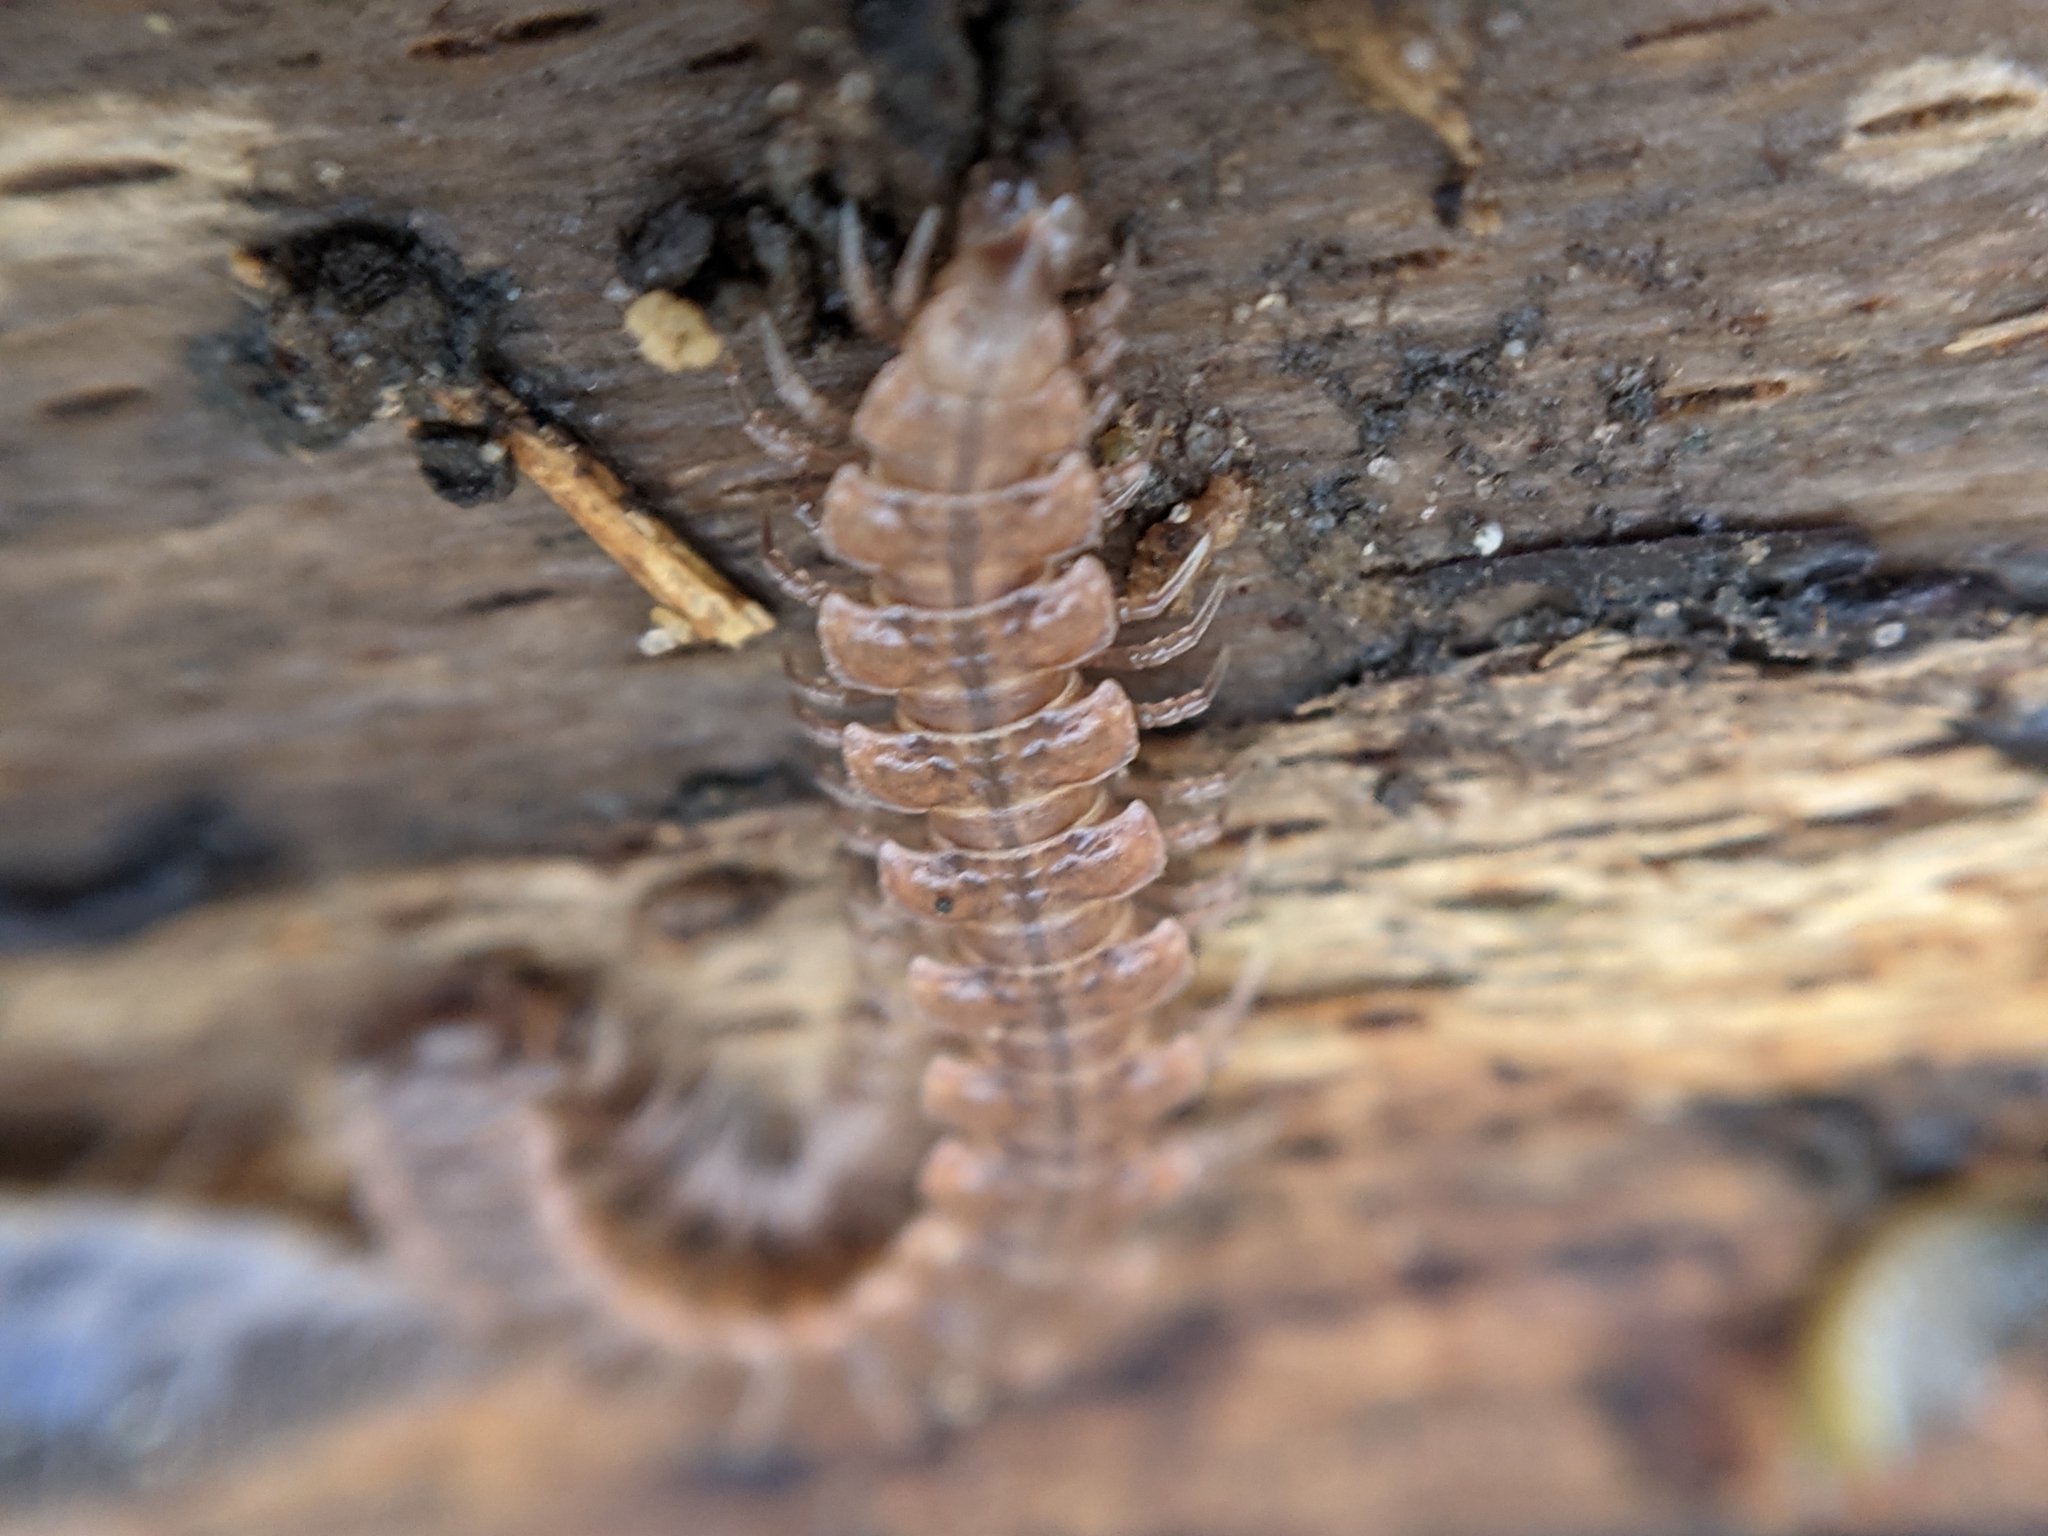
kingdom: Animalia
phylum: Arthropoda
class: Diplopoda
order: Polydesmida
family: Polydesmidae
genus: Polydesmus
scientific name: Polydesmus angustus
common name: Flat millipede
